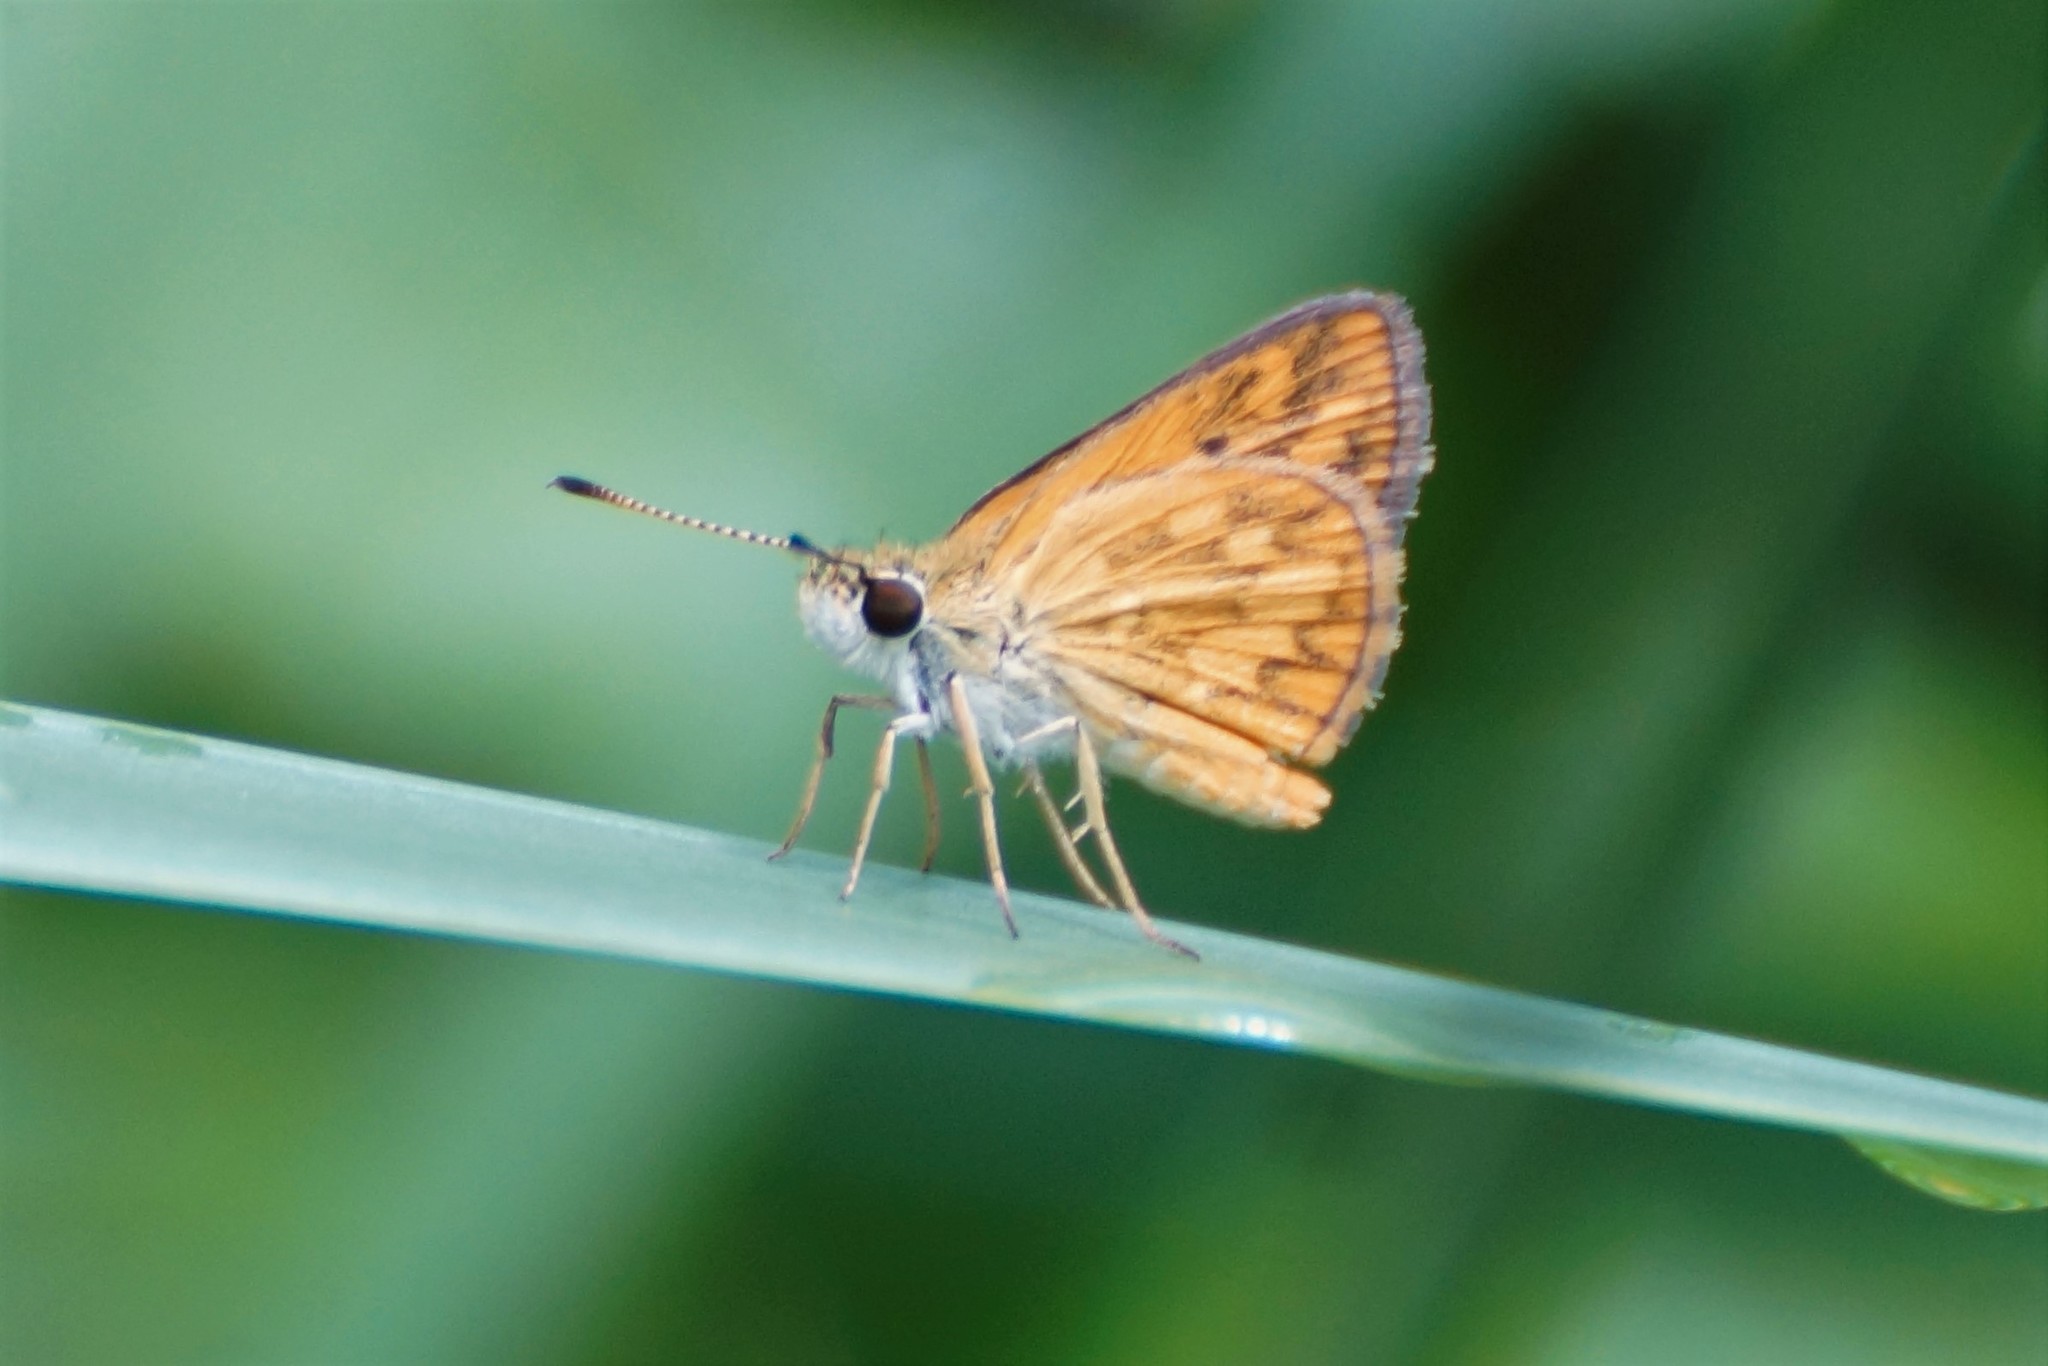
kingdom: Animalia
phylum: Arthropoda
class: Insecta
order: Lepidoptera
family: Hesperiidae
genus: Suniana
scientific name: Suniana sunias
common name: Wide-brand grass-dart
